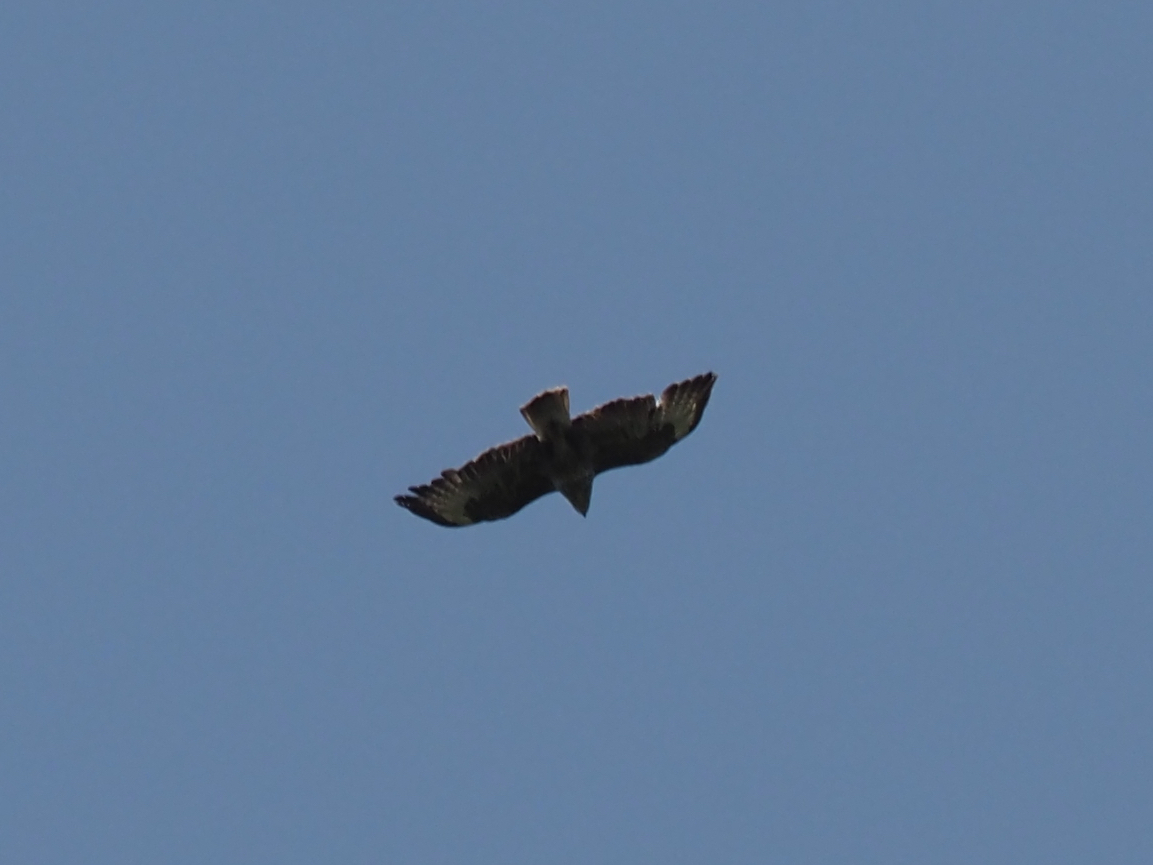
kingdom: Animalia
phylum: Chordata
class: Aves
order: Accipitriformes
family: Accipitridae
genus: Buteo
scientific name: Buteo buteo
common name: Common buzzard
